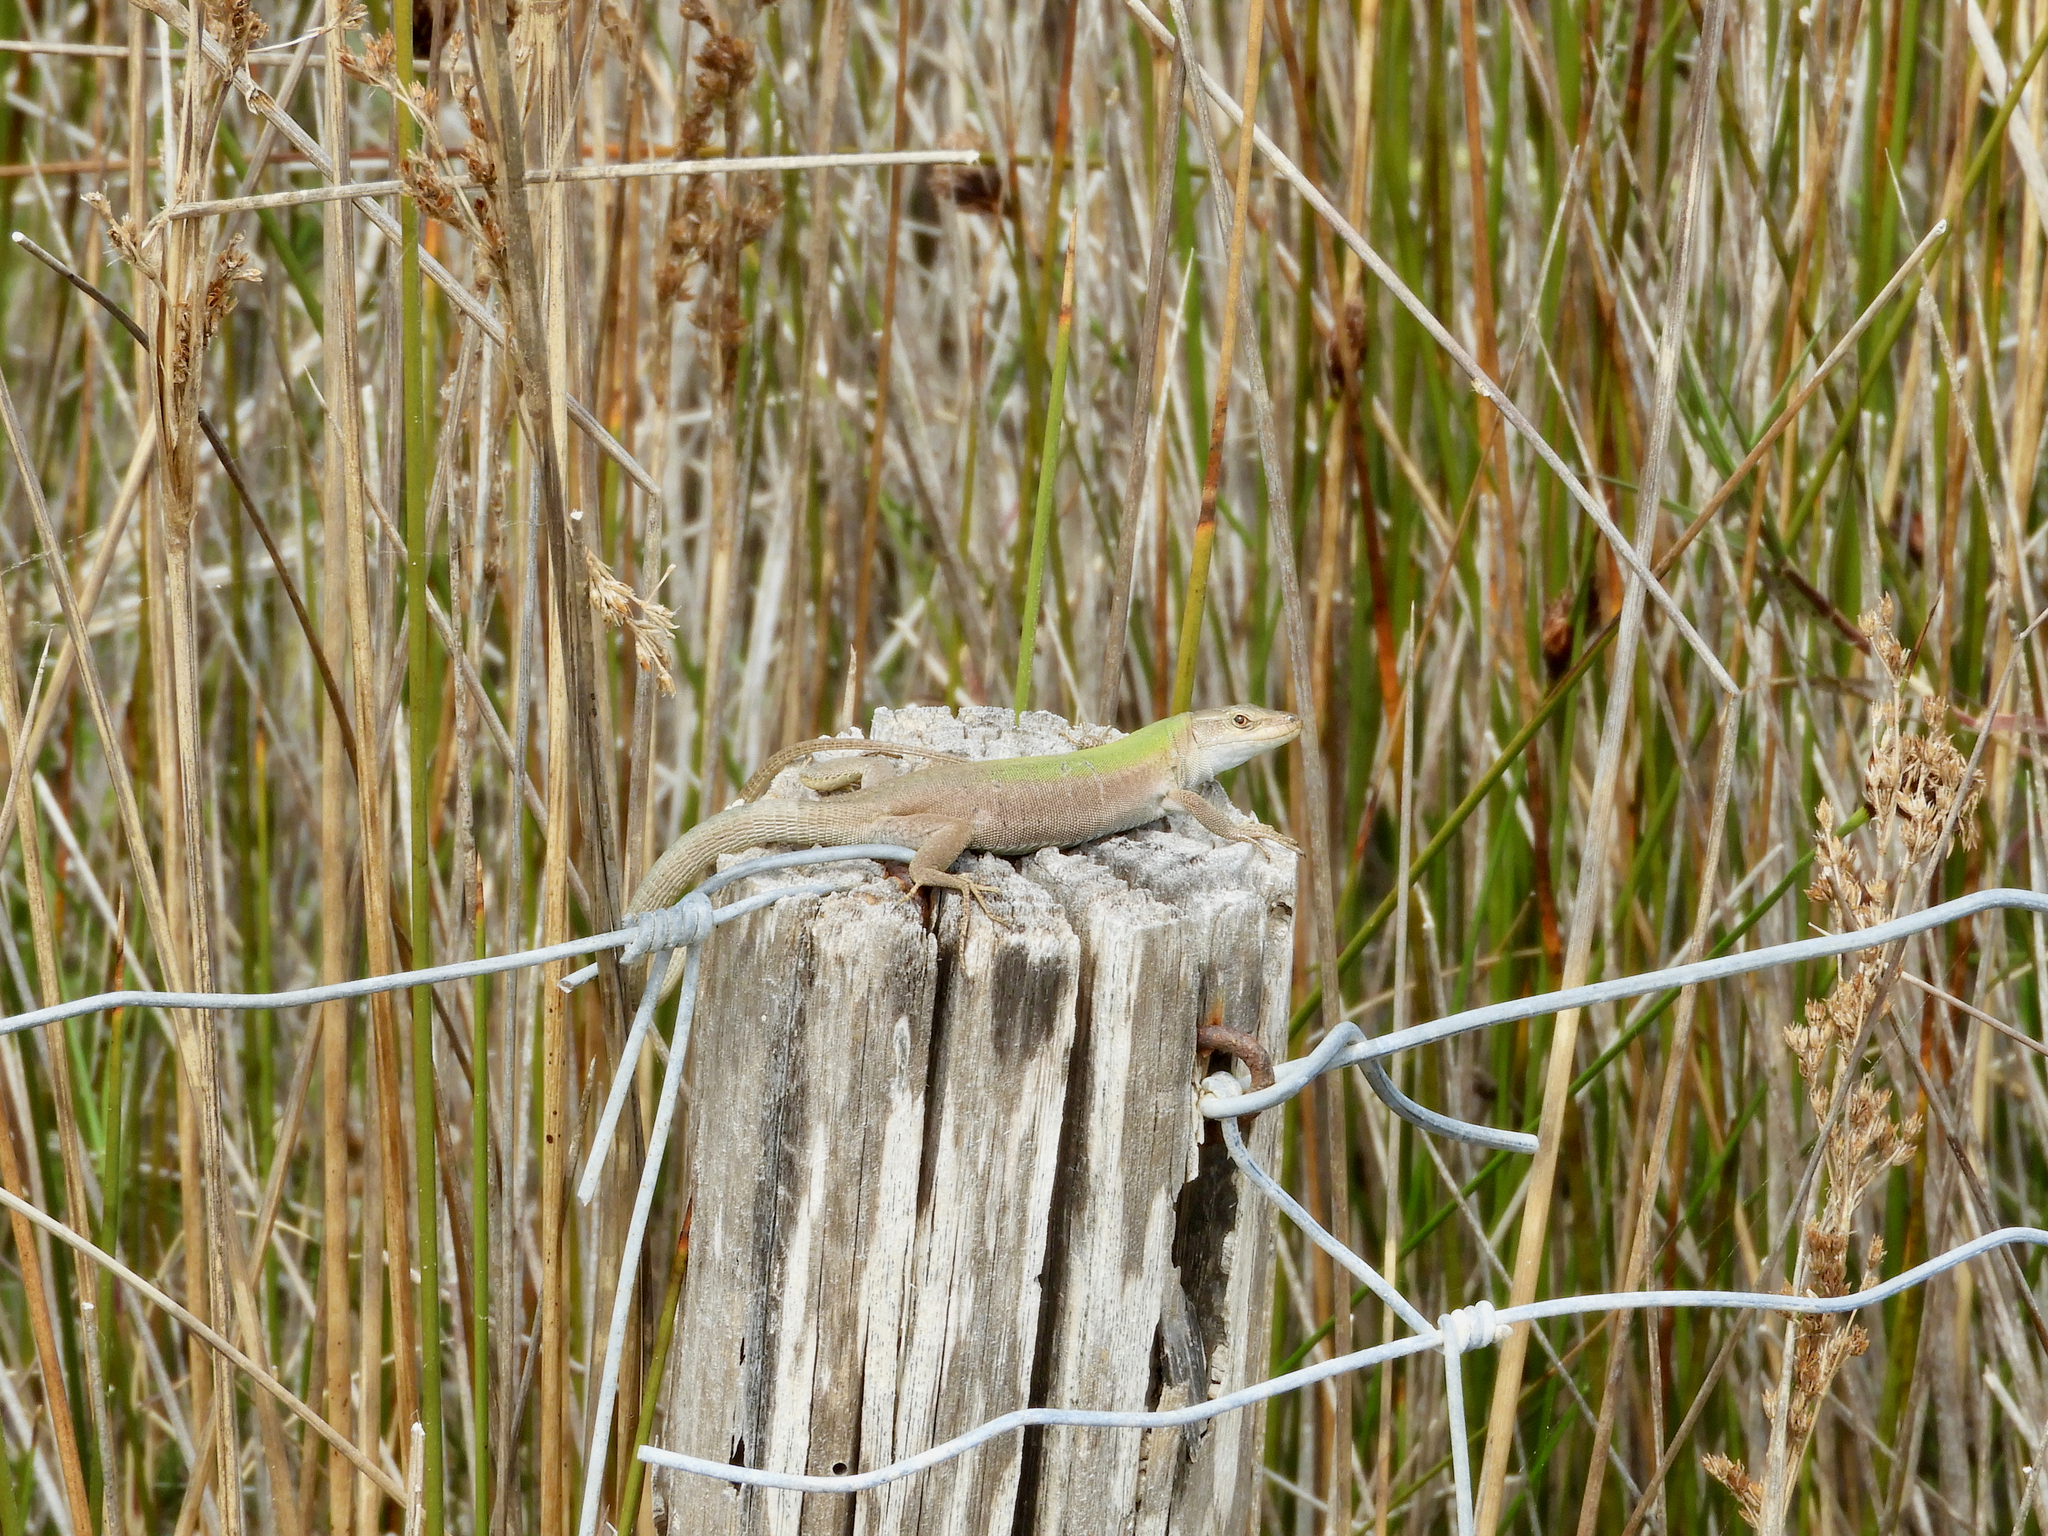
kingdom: Animalia
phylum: Chordata
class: Squamata
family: Lacertidae
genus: Podarcis
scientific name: Podarcis siculus
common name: Italian wall lizard
